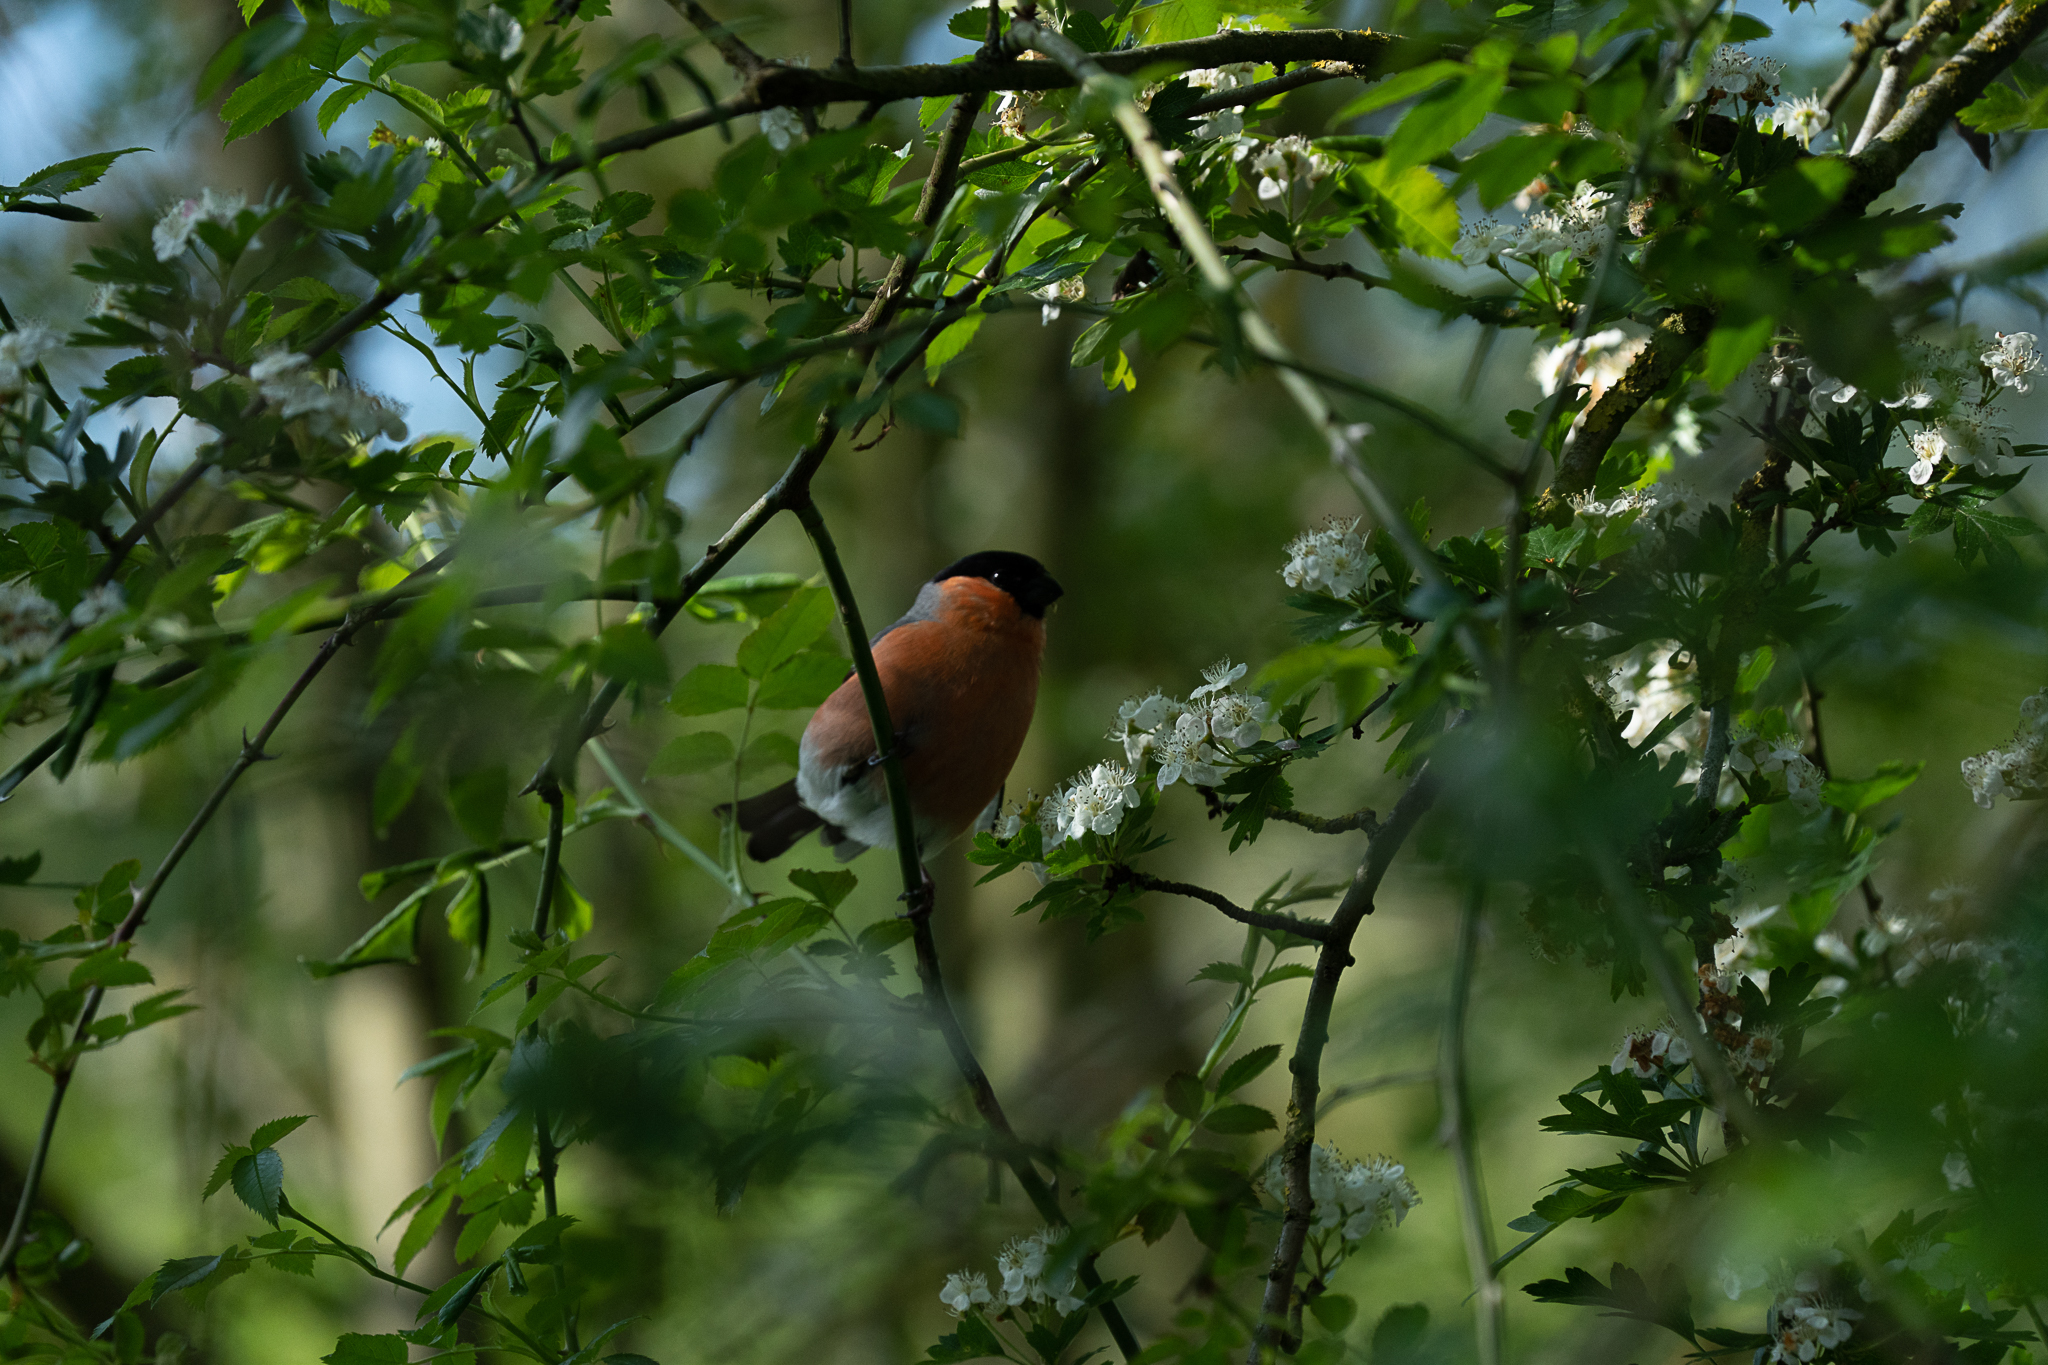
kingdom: Animalia
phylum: Chordata
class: Aves
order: Passeriformes
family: Fringillidae
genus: Pyrrhula
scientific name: Pyrrhula pyrrhula
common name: Eurasian bullfinch
